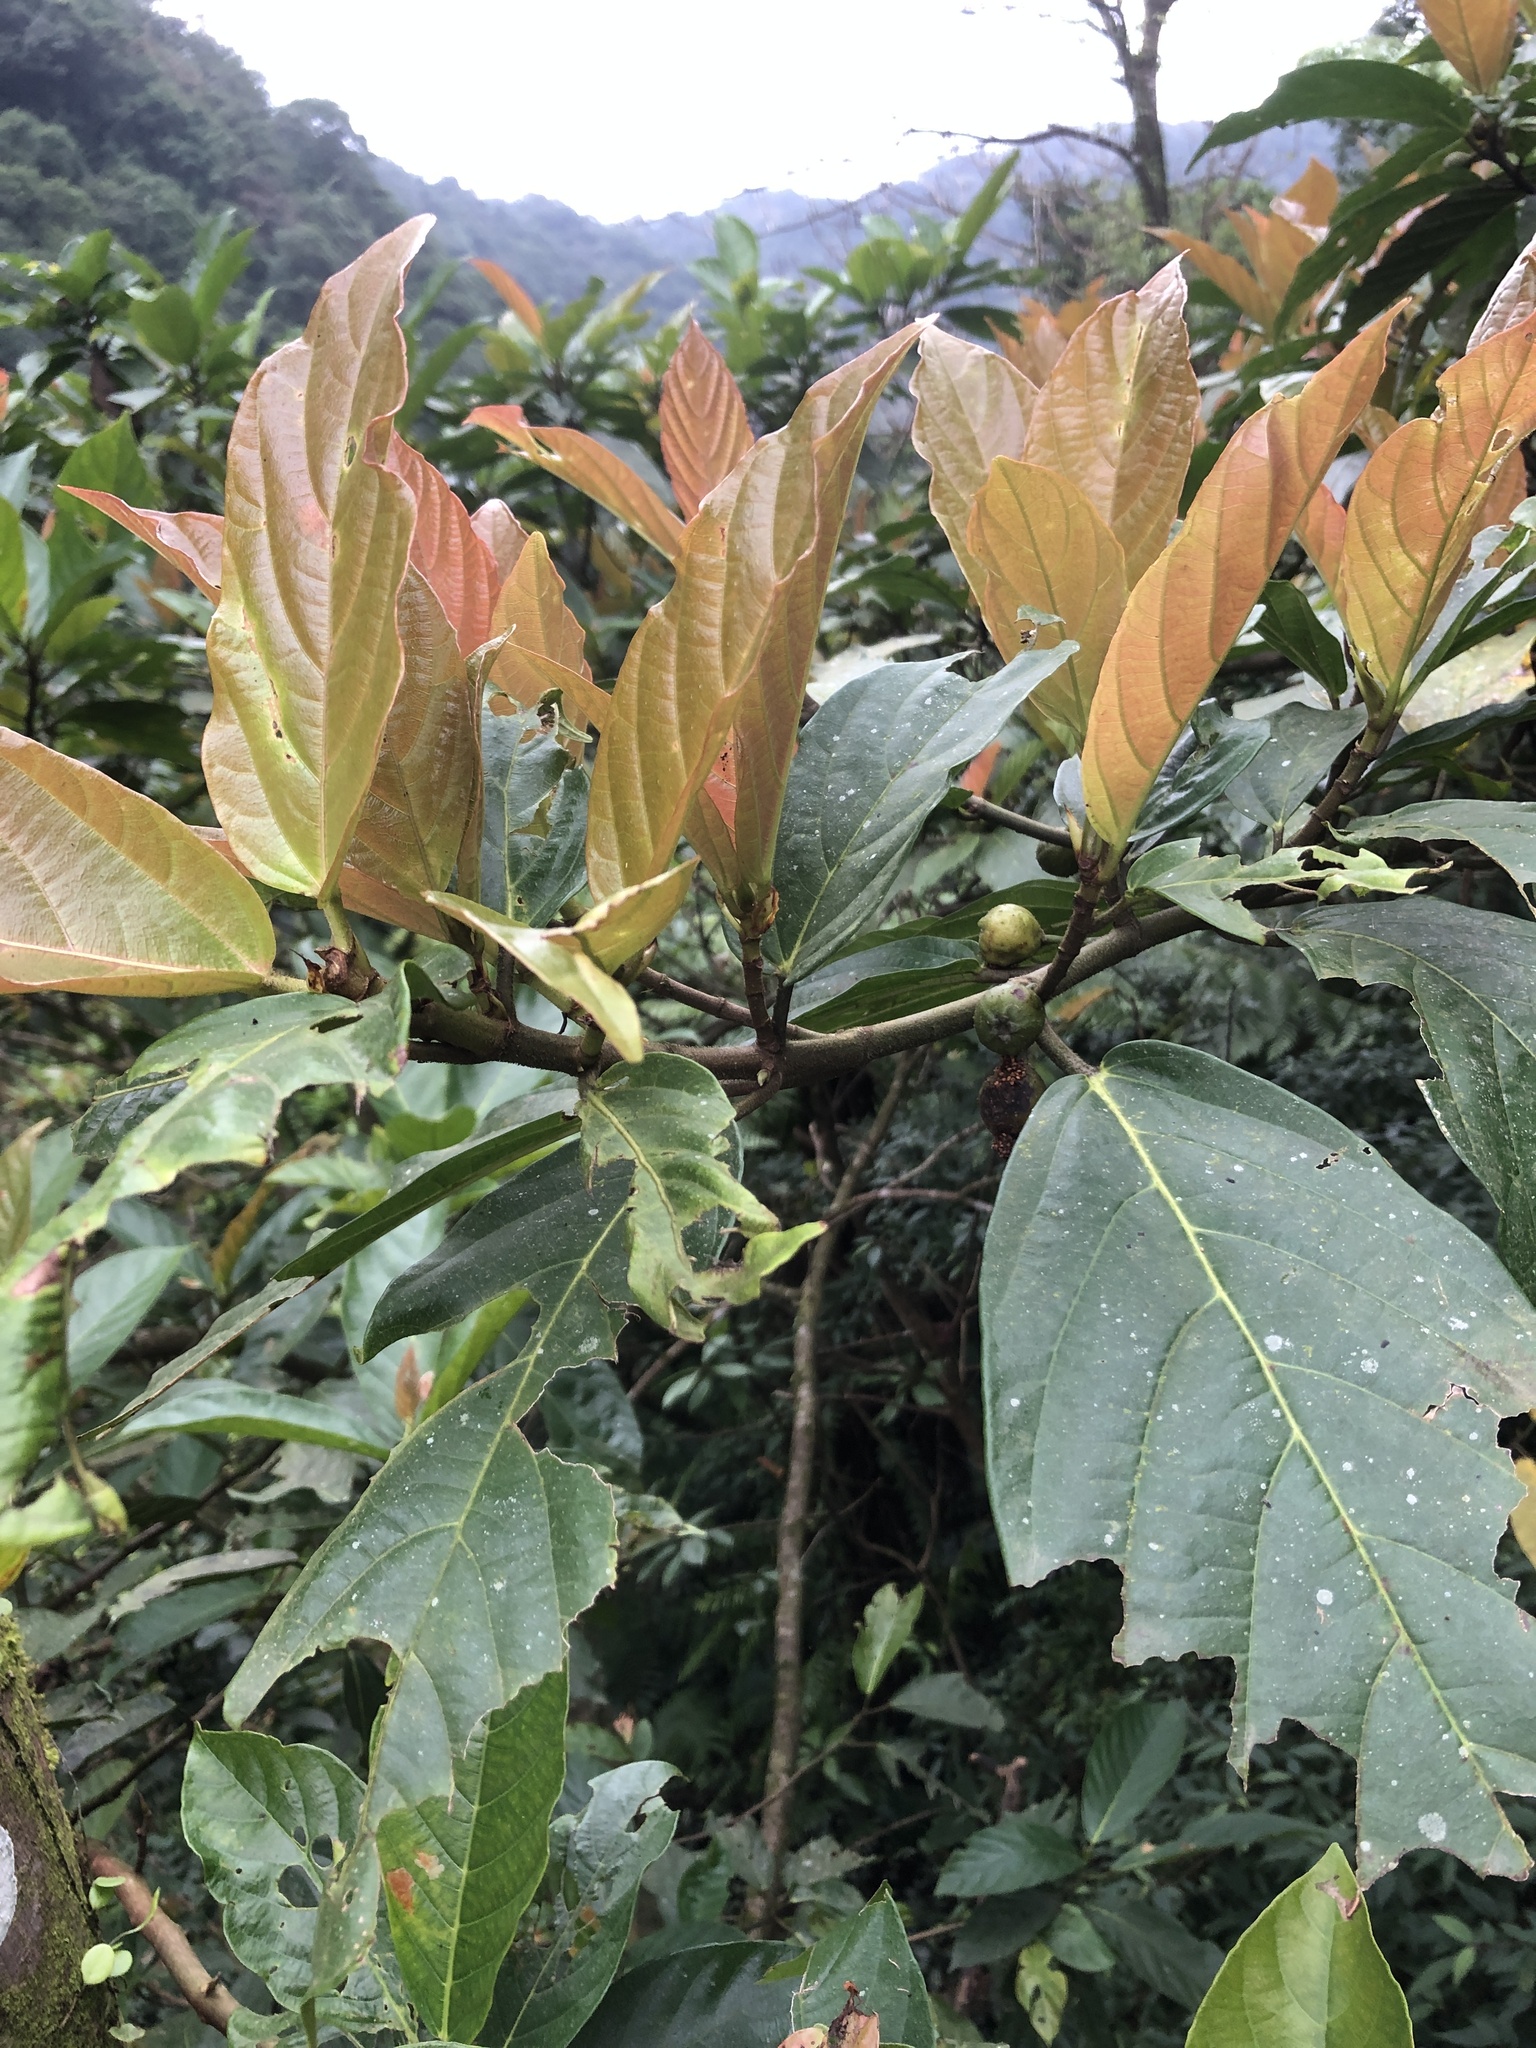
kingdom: Plantae
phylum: Tracheophyta
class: Magnoliopsida
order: Rosales
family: Moraceae
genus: Ficus
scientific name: Ficus benguetensis
